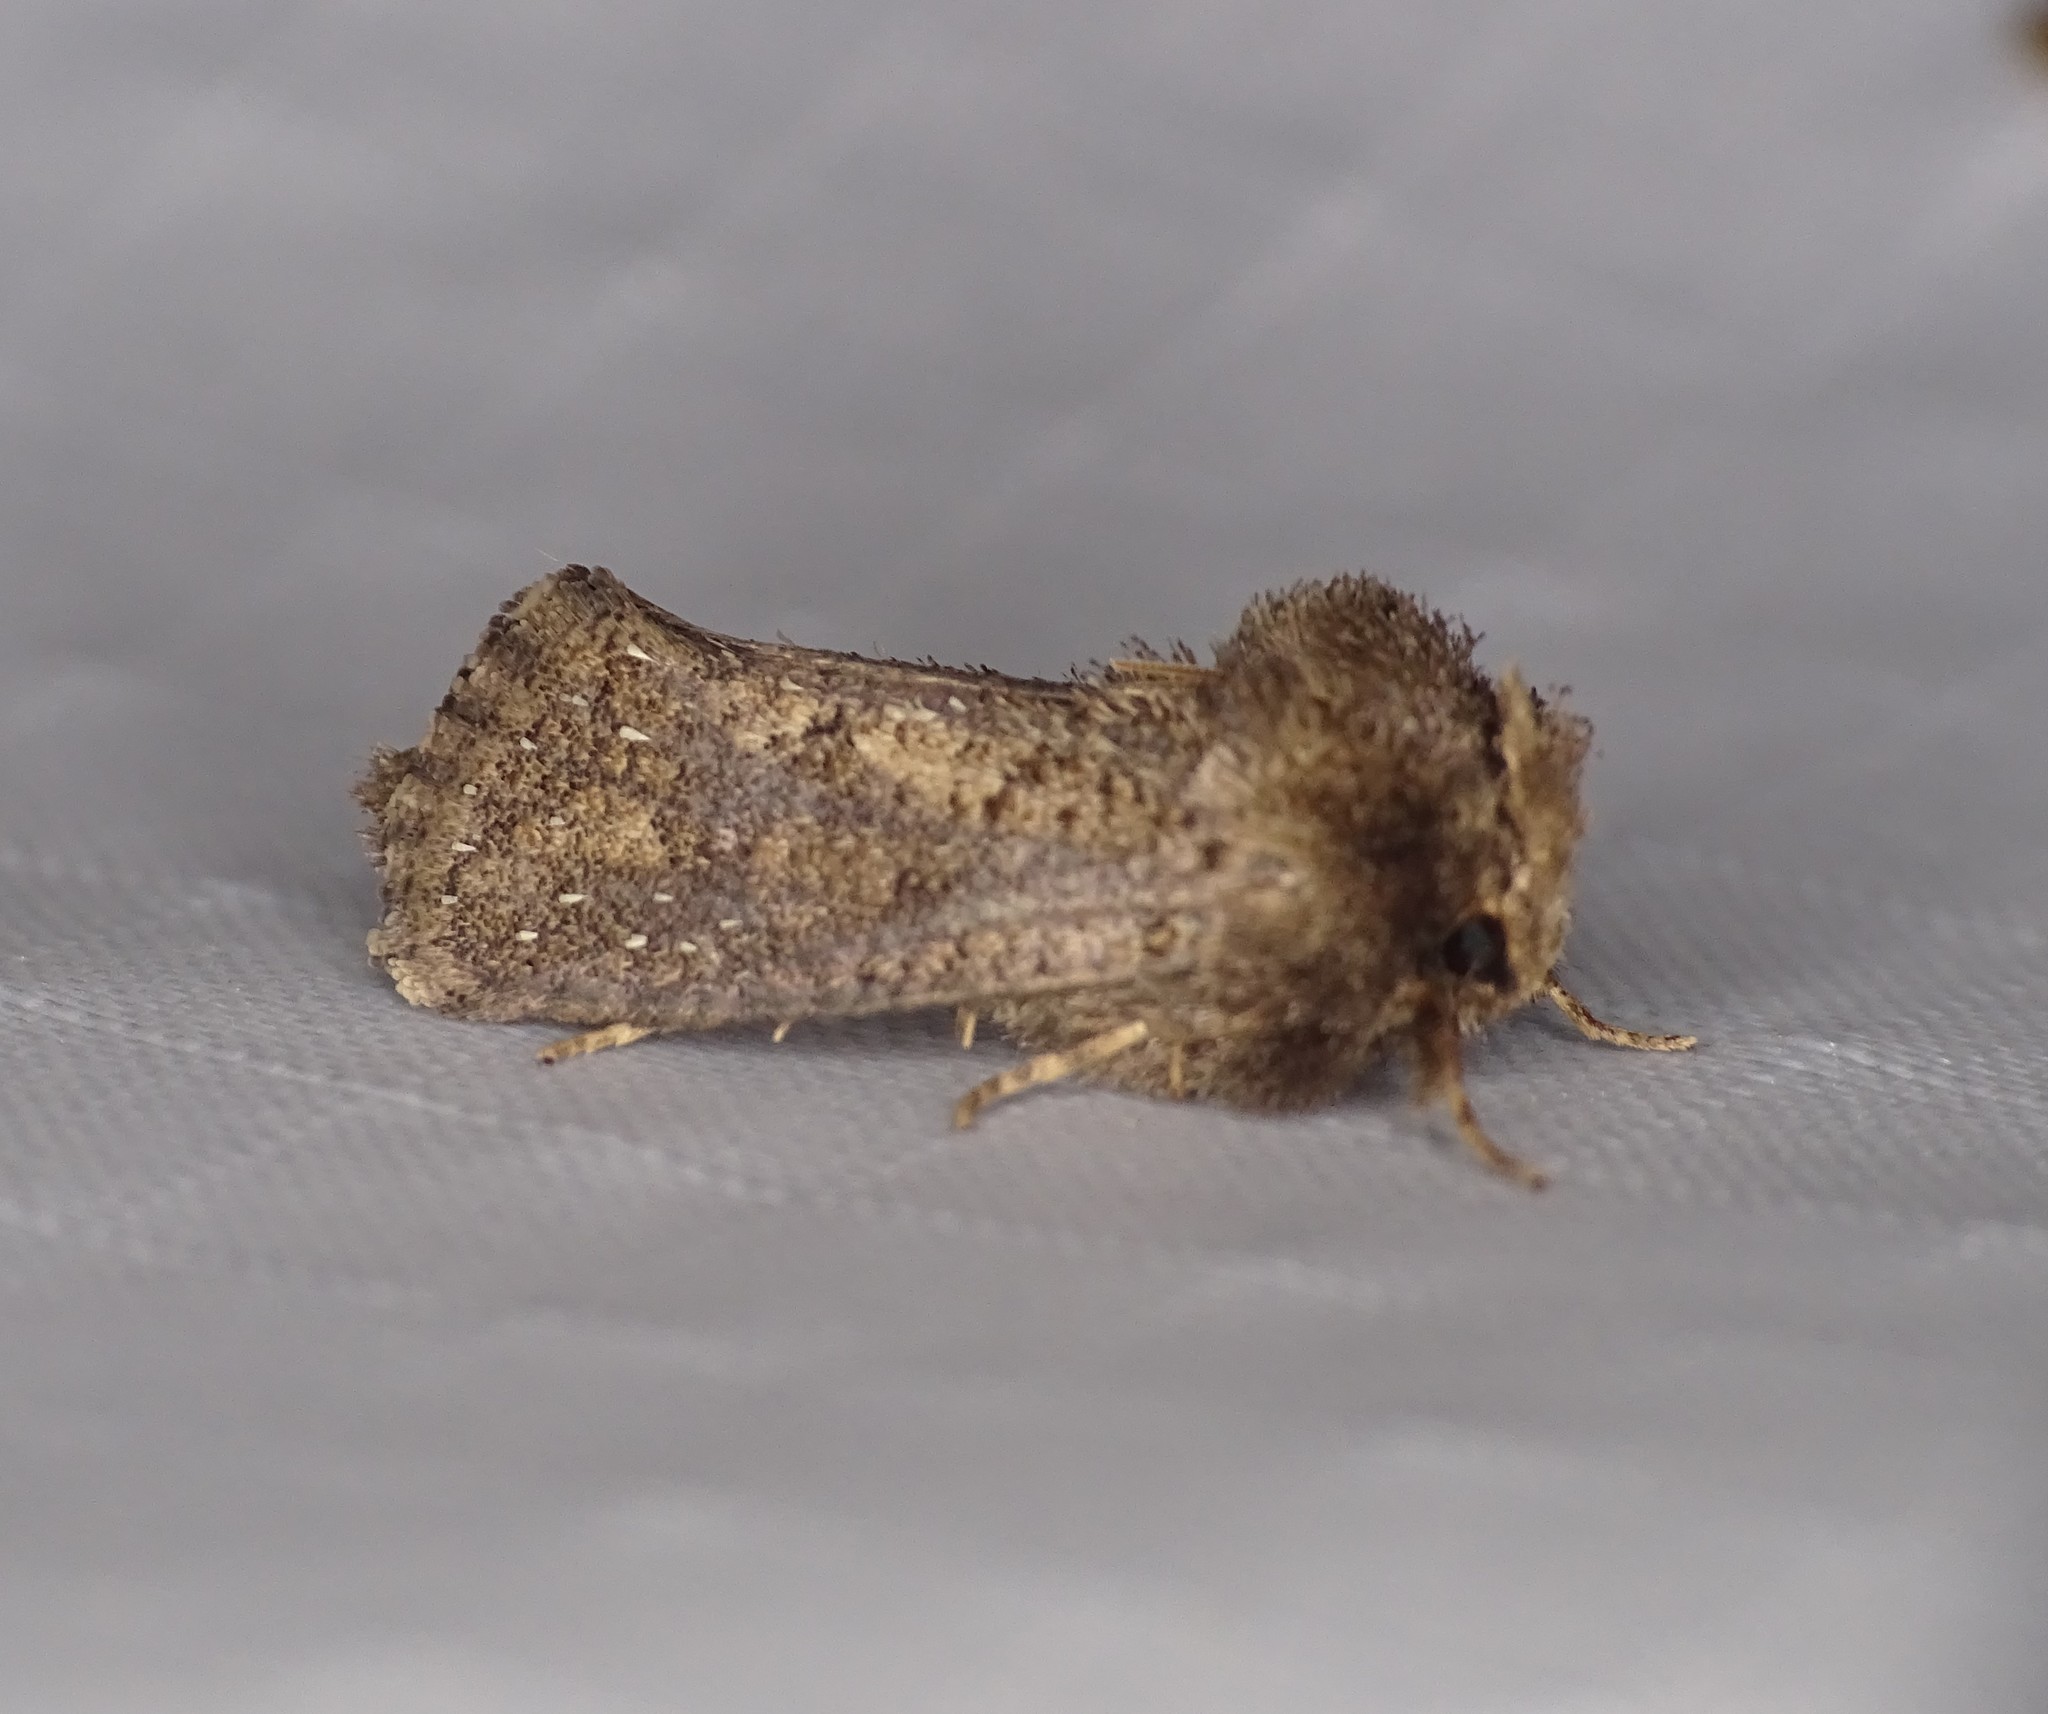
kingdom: Animalia
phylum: Arthropoda
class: Insecta
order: Lepidoptera
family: Tineidae
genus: Acrolophus
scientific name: Acrolophus arcanella
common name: Arcane grass tubeworm moth
